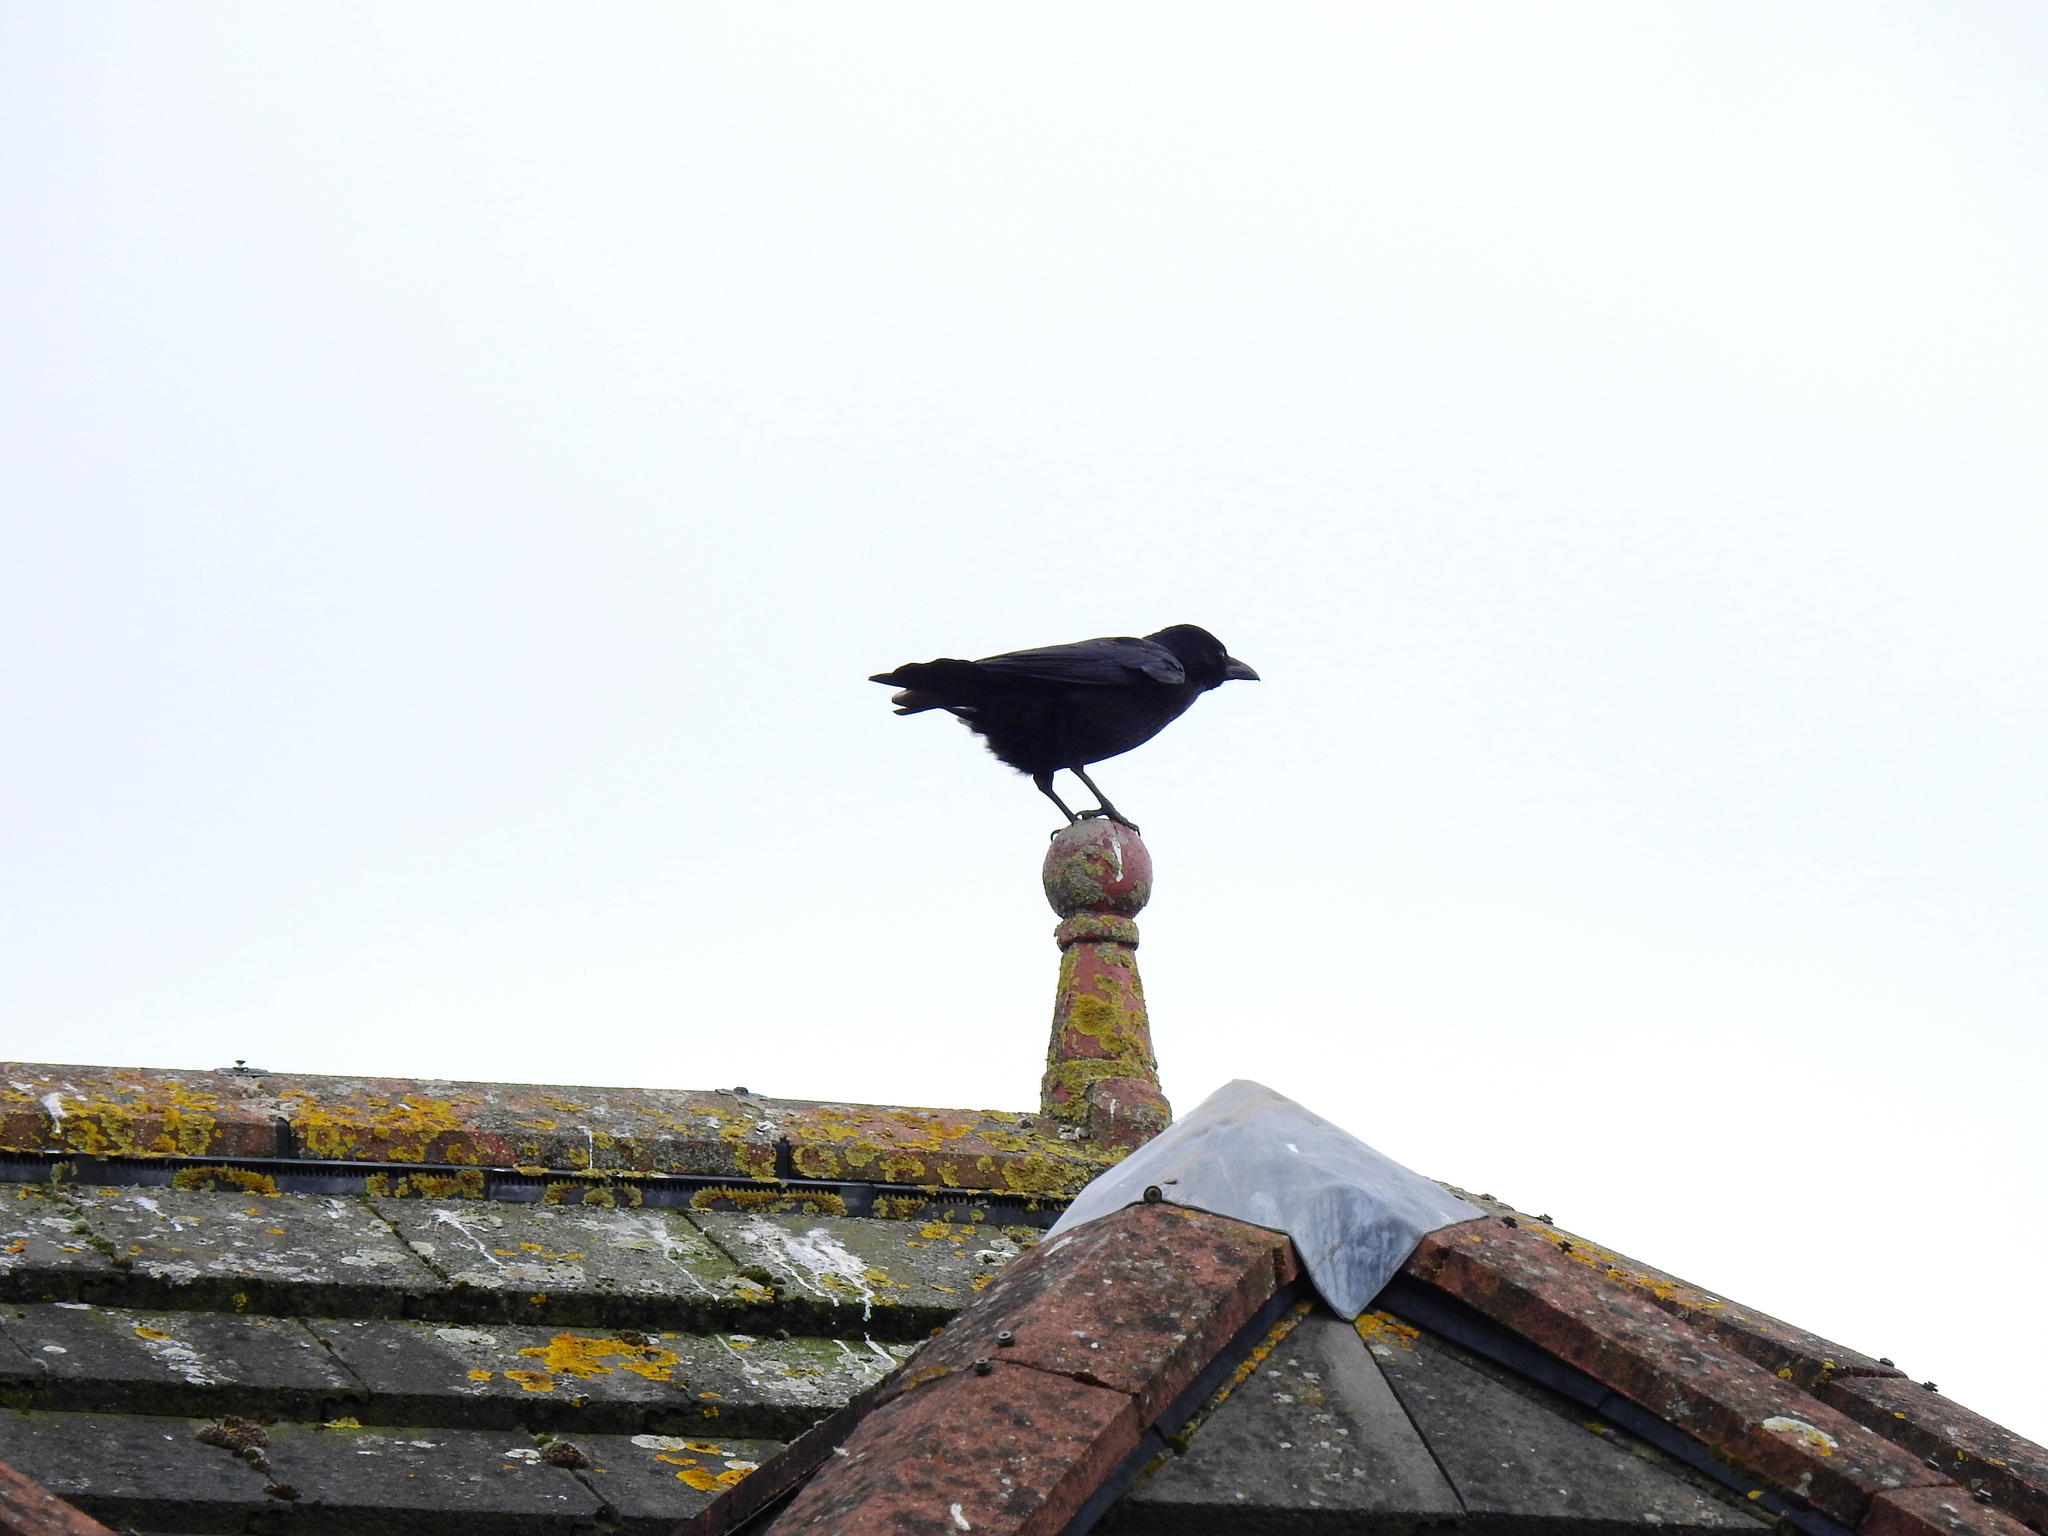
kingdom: Animalia
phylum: Chordata
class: Aves
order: Passeriformes
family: Corvidae
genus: Corvus
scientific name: Corvus corone
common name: Carrion crow
